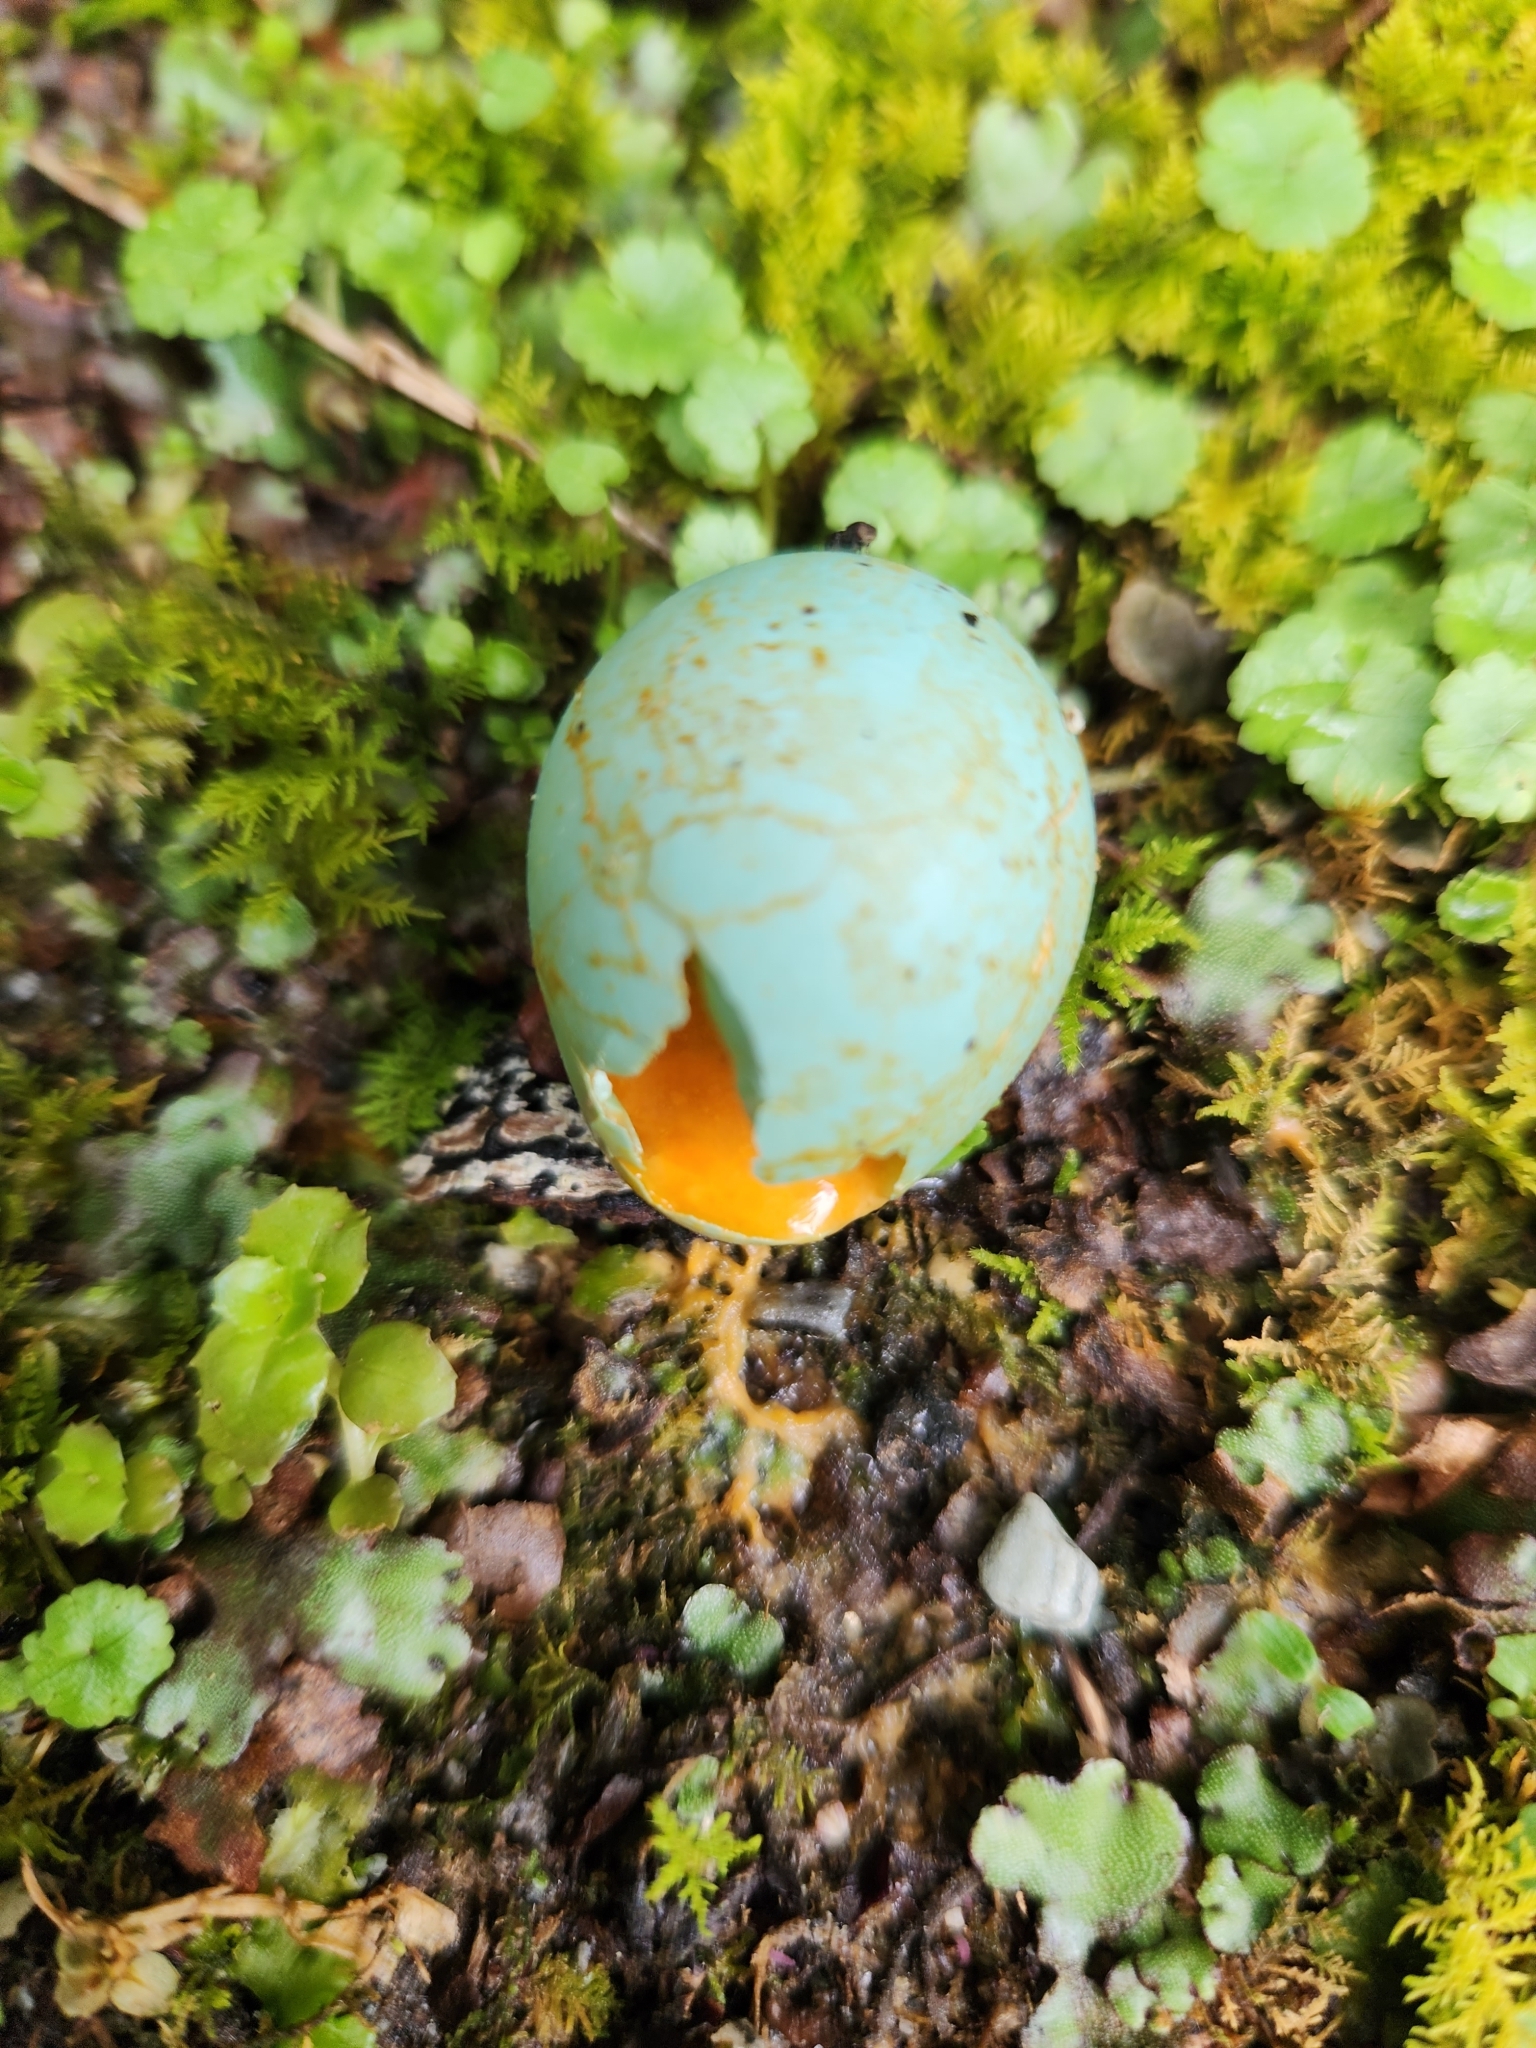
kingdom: Animalia
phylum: Chordata
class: Aves
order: Passeriformes
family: Turdidae
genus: Turdus
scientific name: Turdus philomelos
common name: Song thrush
